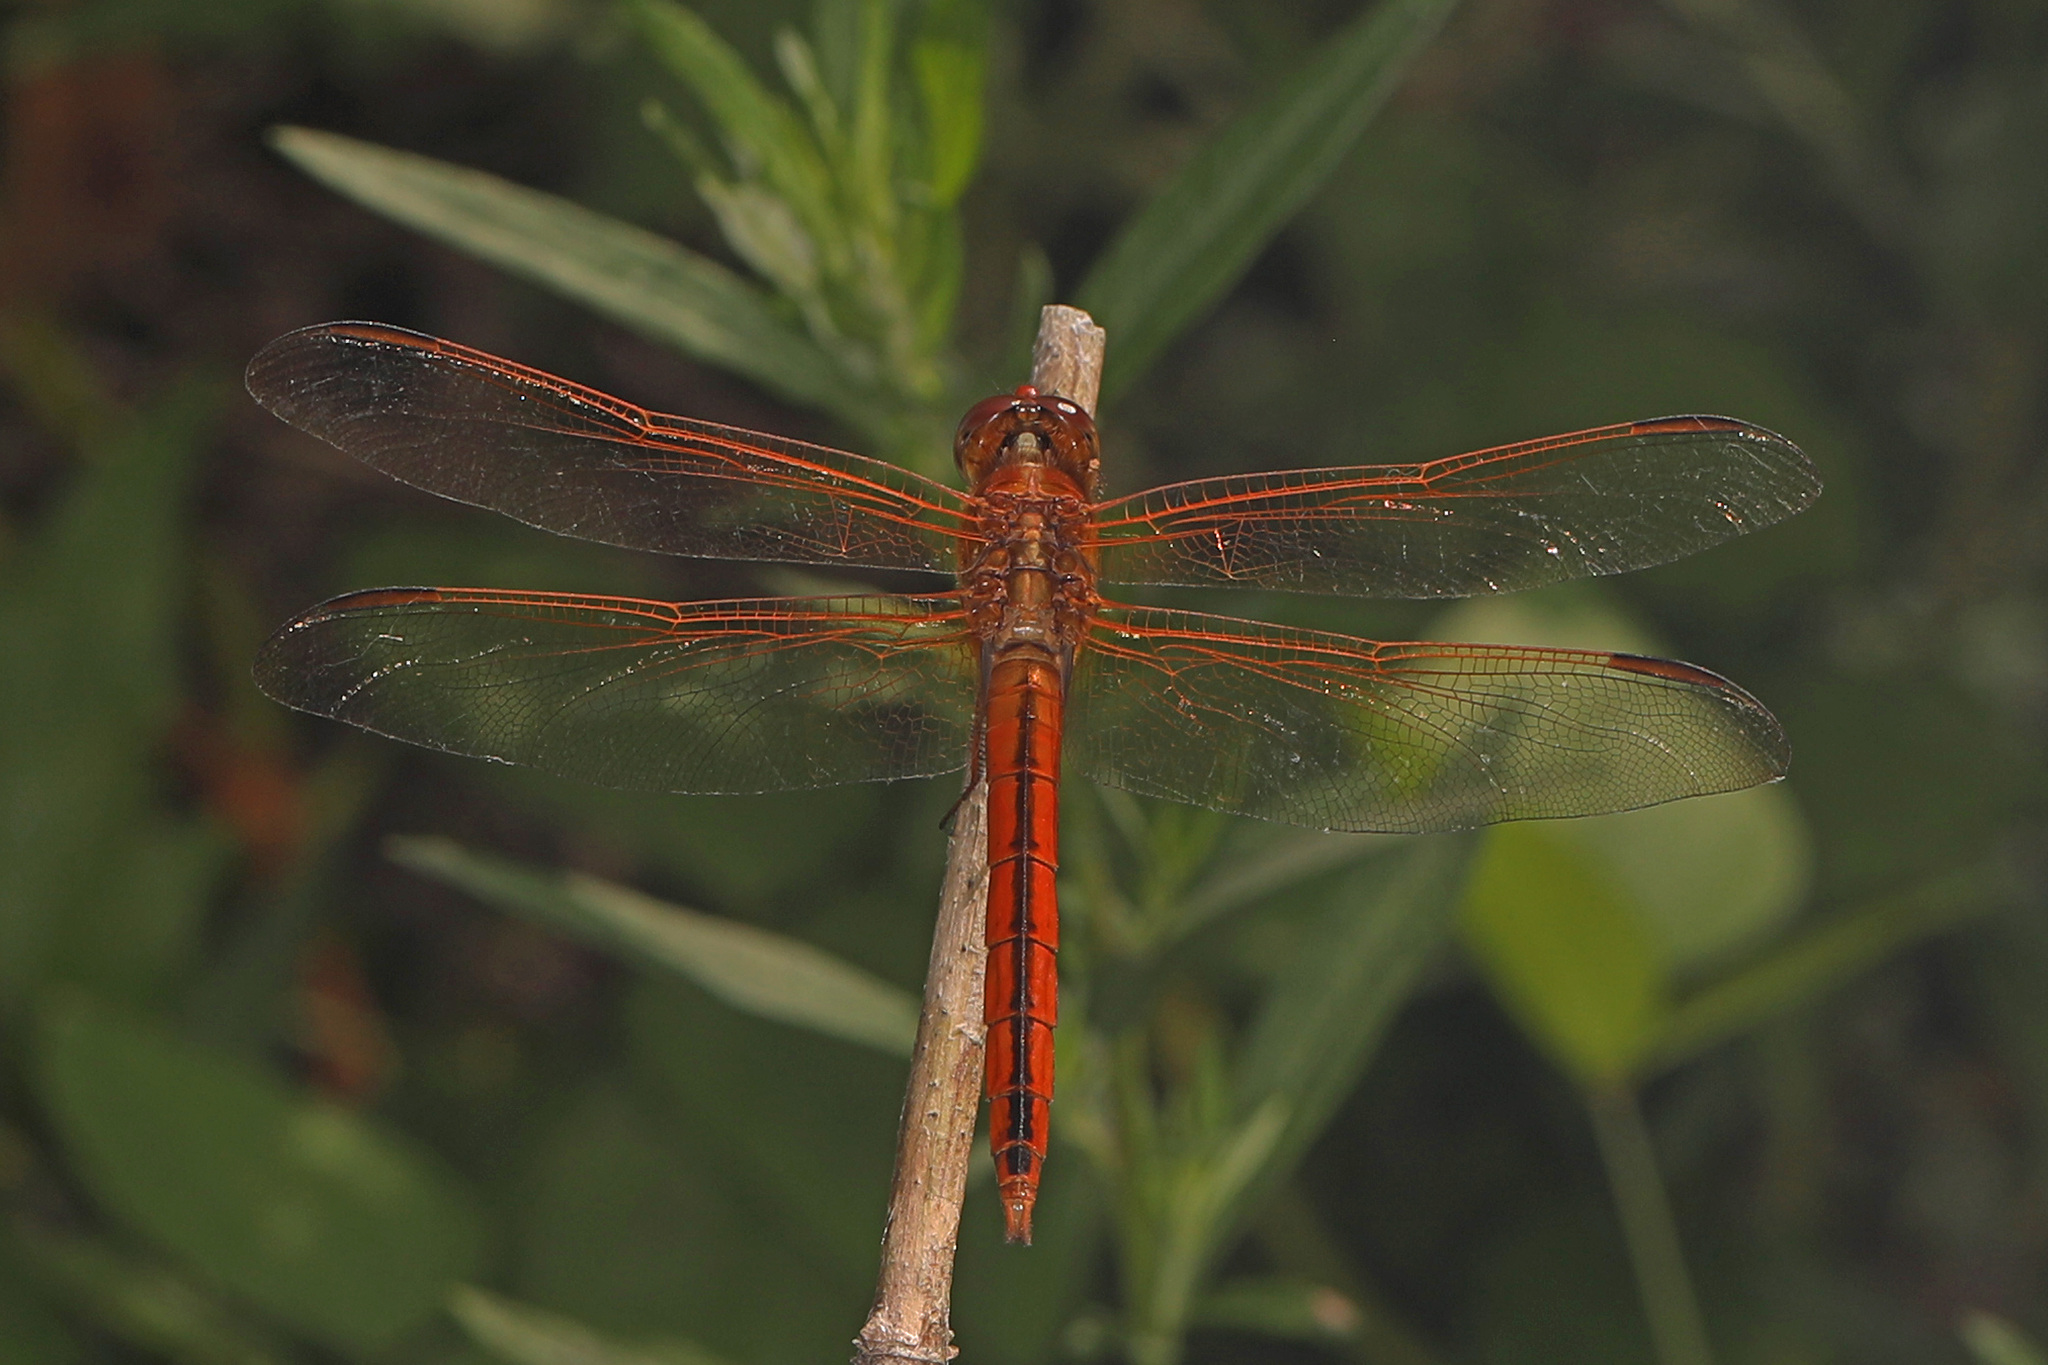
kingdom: Animalia
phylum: Arthropoda
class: Insecta
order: Odonata
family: Libellulidae
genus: Libellula
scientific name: Libellula needhami
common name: Needham's skimmer
